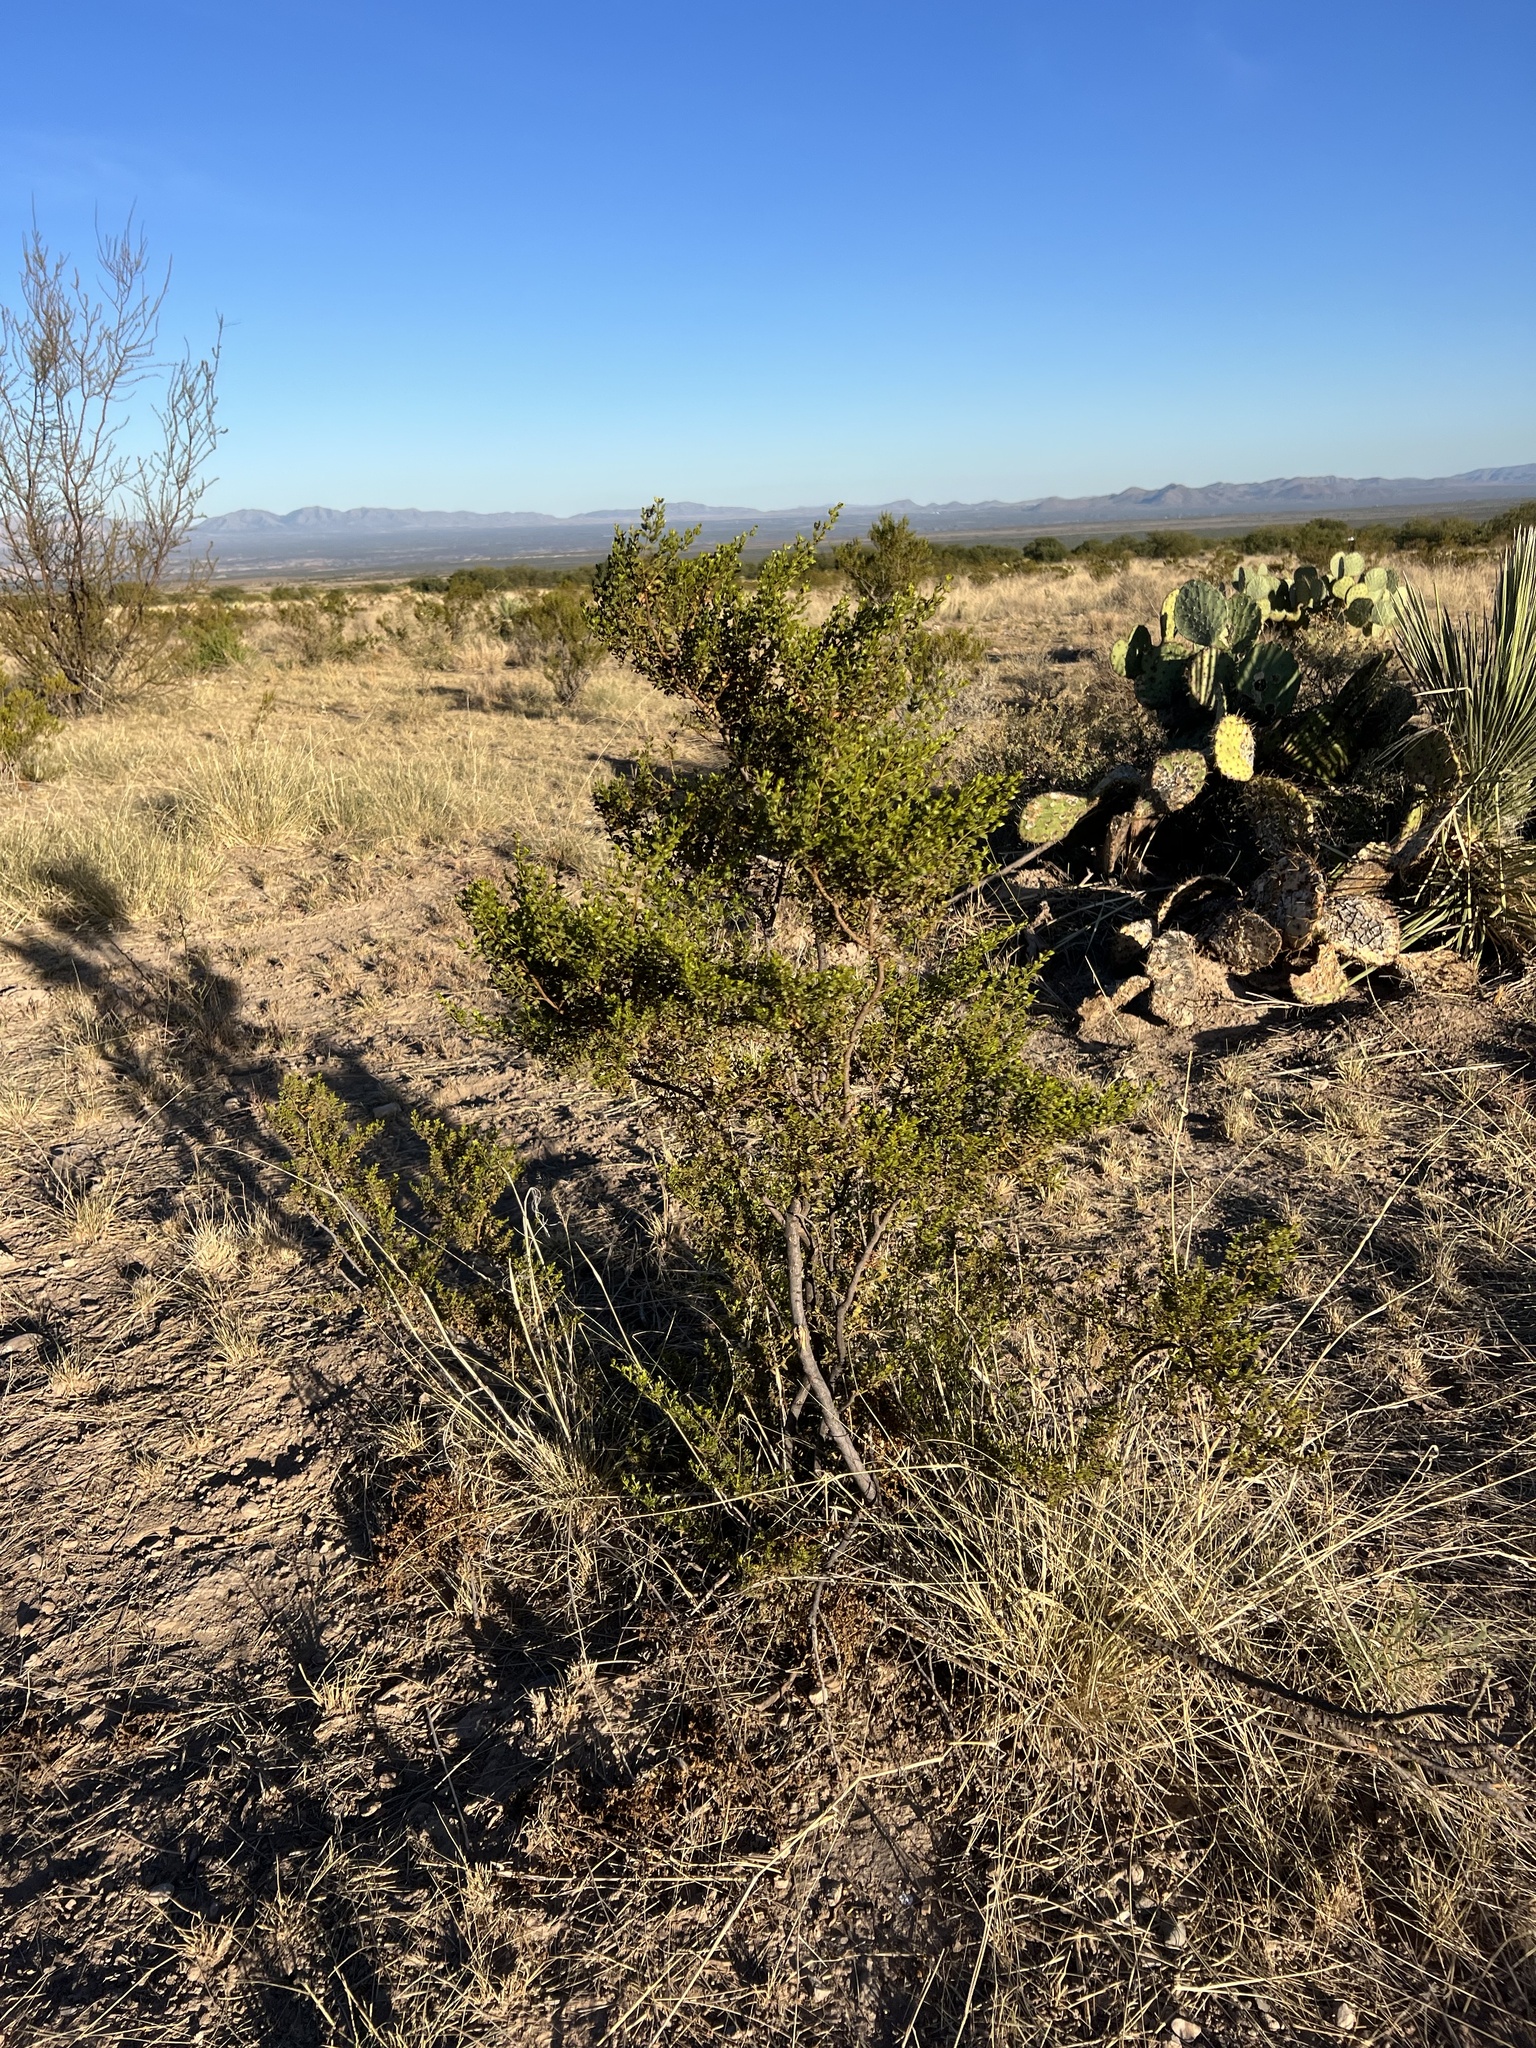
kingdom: Plantae
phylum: Tracheophyta
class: Magnoliopsida
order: Zygophyllales
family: Zygophyllaceae
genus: Larrea
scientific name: Larrea tridentata
